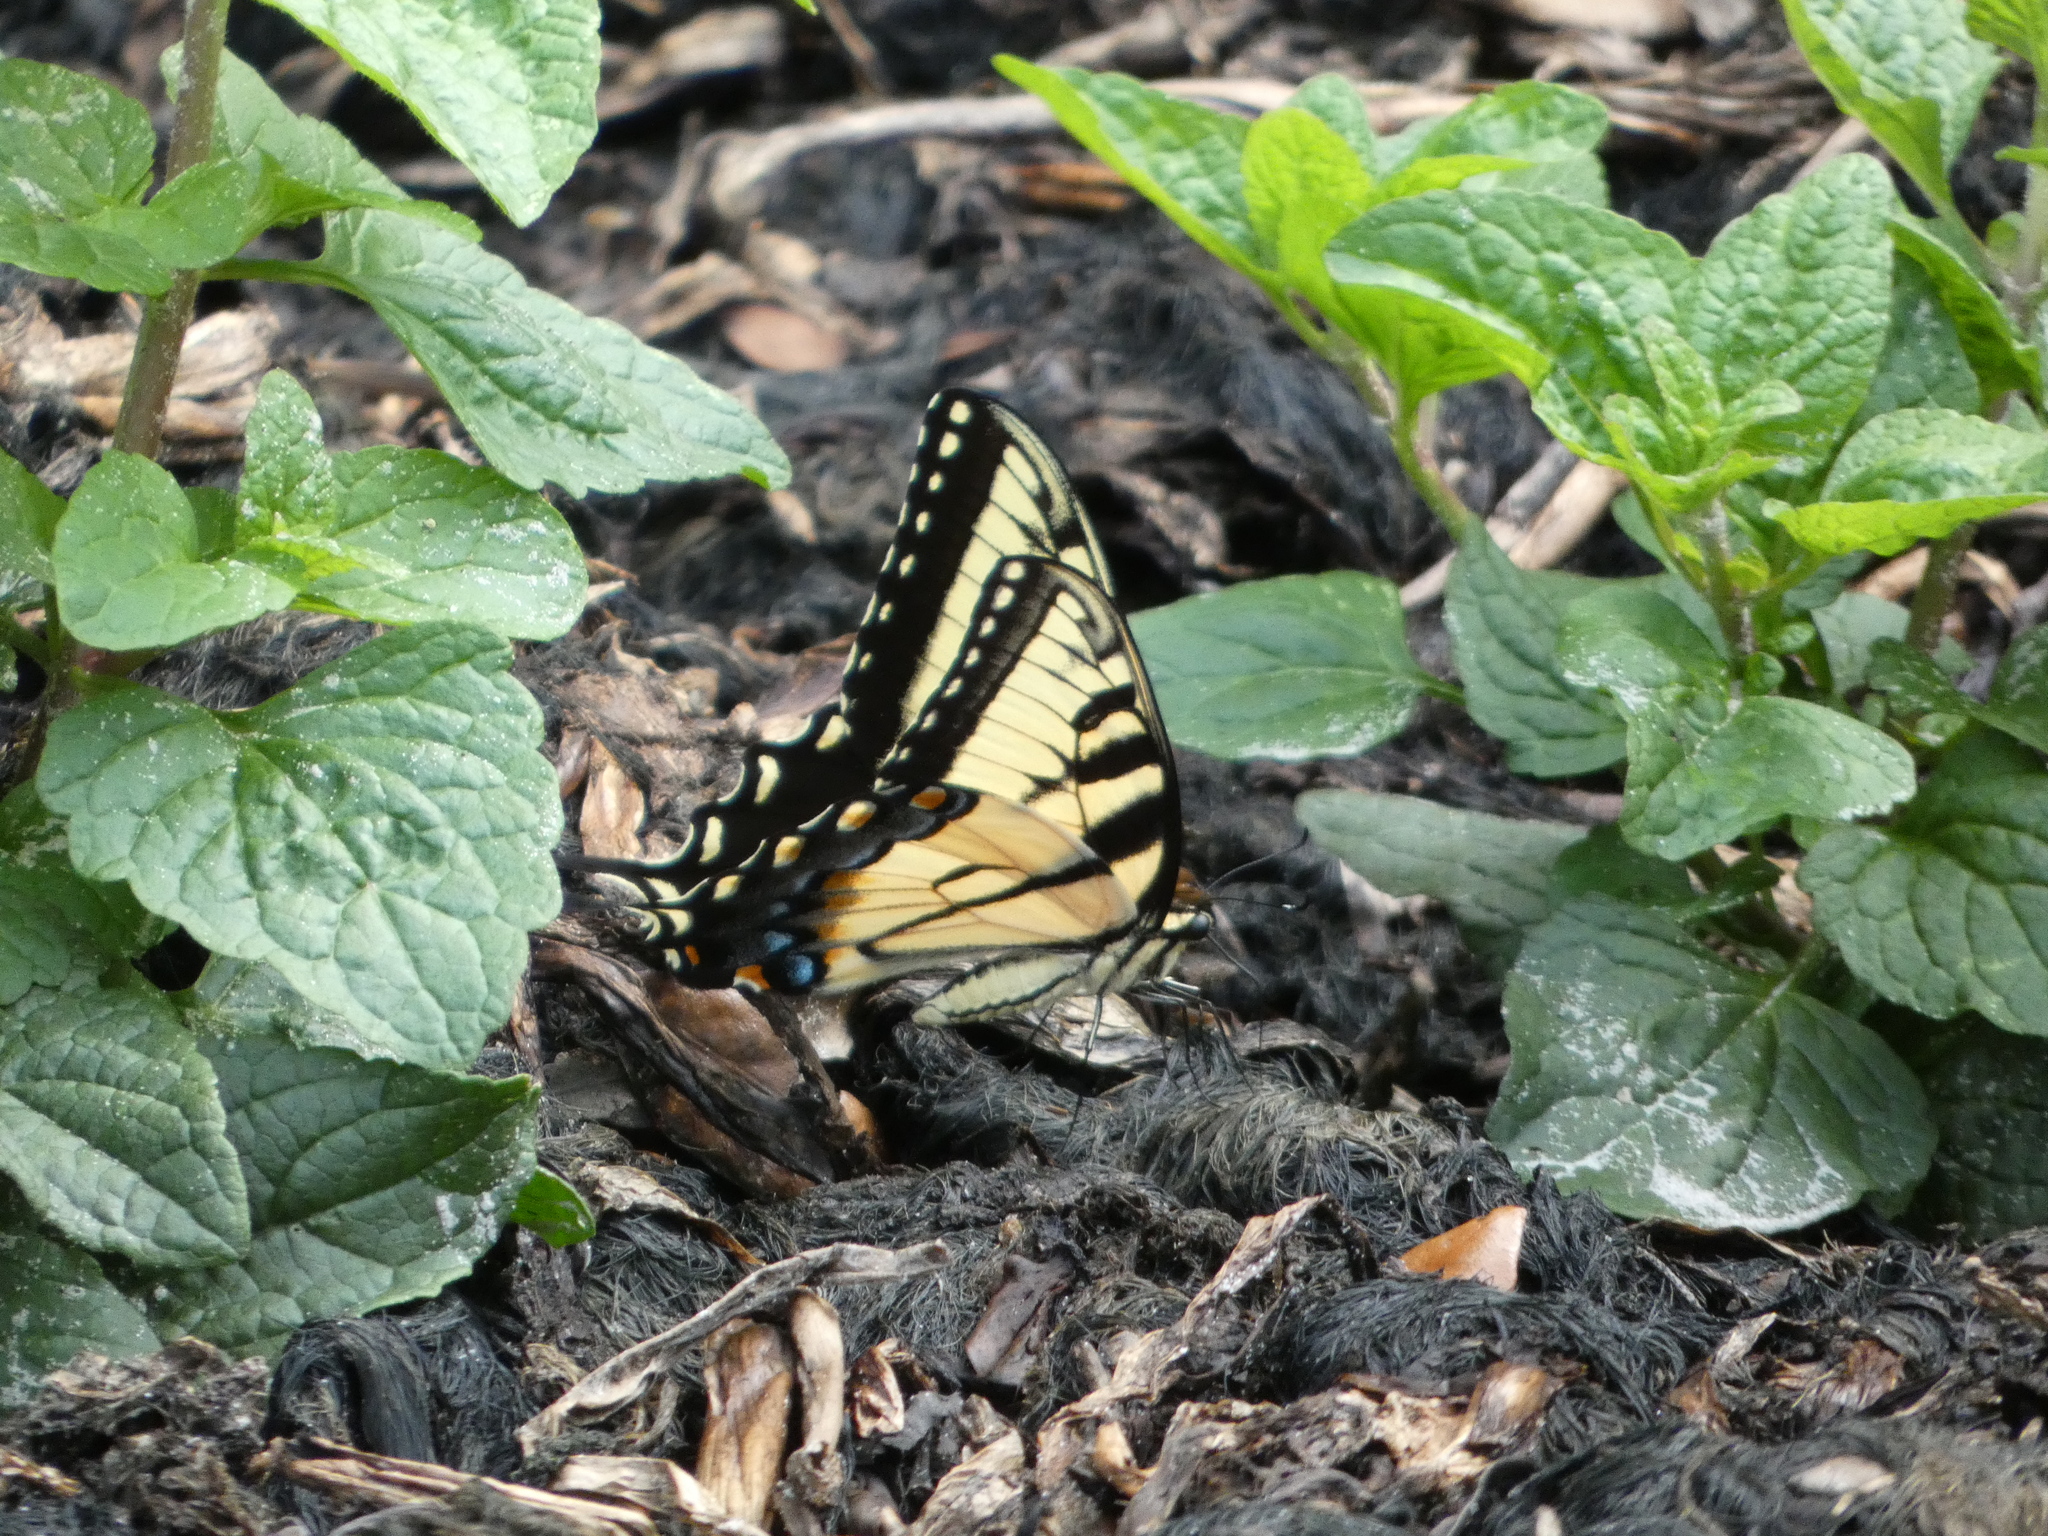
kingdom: Animalia
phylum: Arthropoda
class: Insecta
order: Lepidoptera
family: Papilionidae
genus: Papilio
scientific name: Papilio glaucus
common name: Tiger swallowtail
